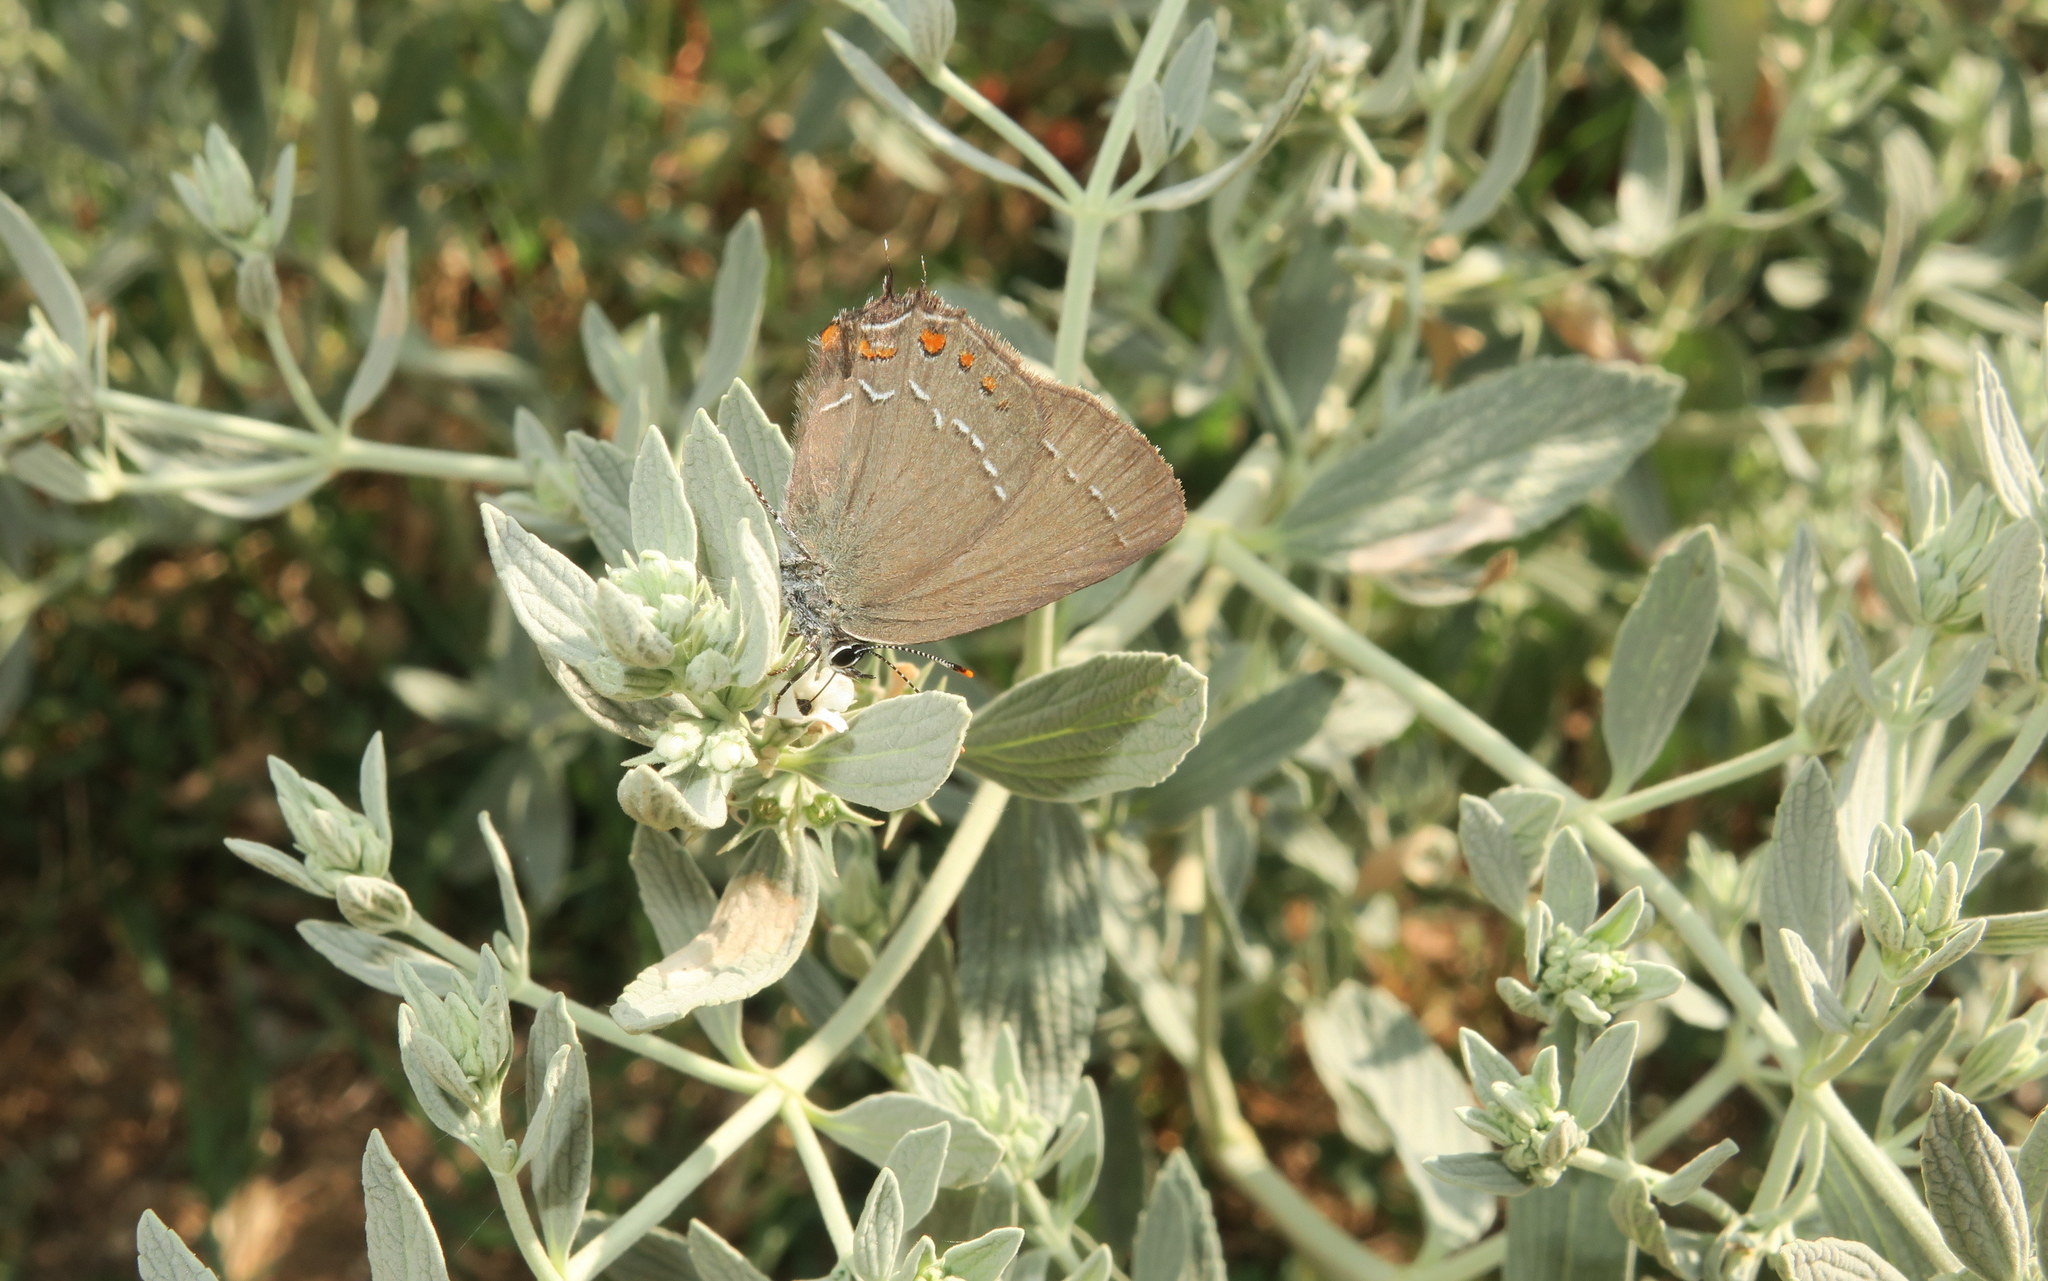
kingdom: Animalia
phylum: Arthropoda
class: Insecta
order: Lepidoptera
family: Lycaenidae
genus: Nordmannia
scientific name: Nordmannia ilicis
